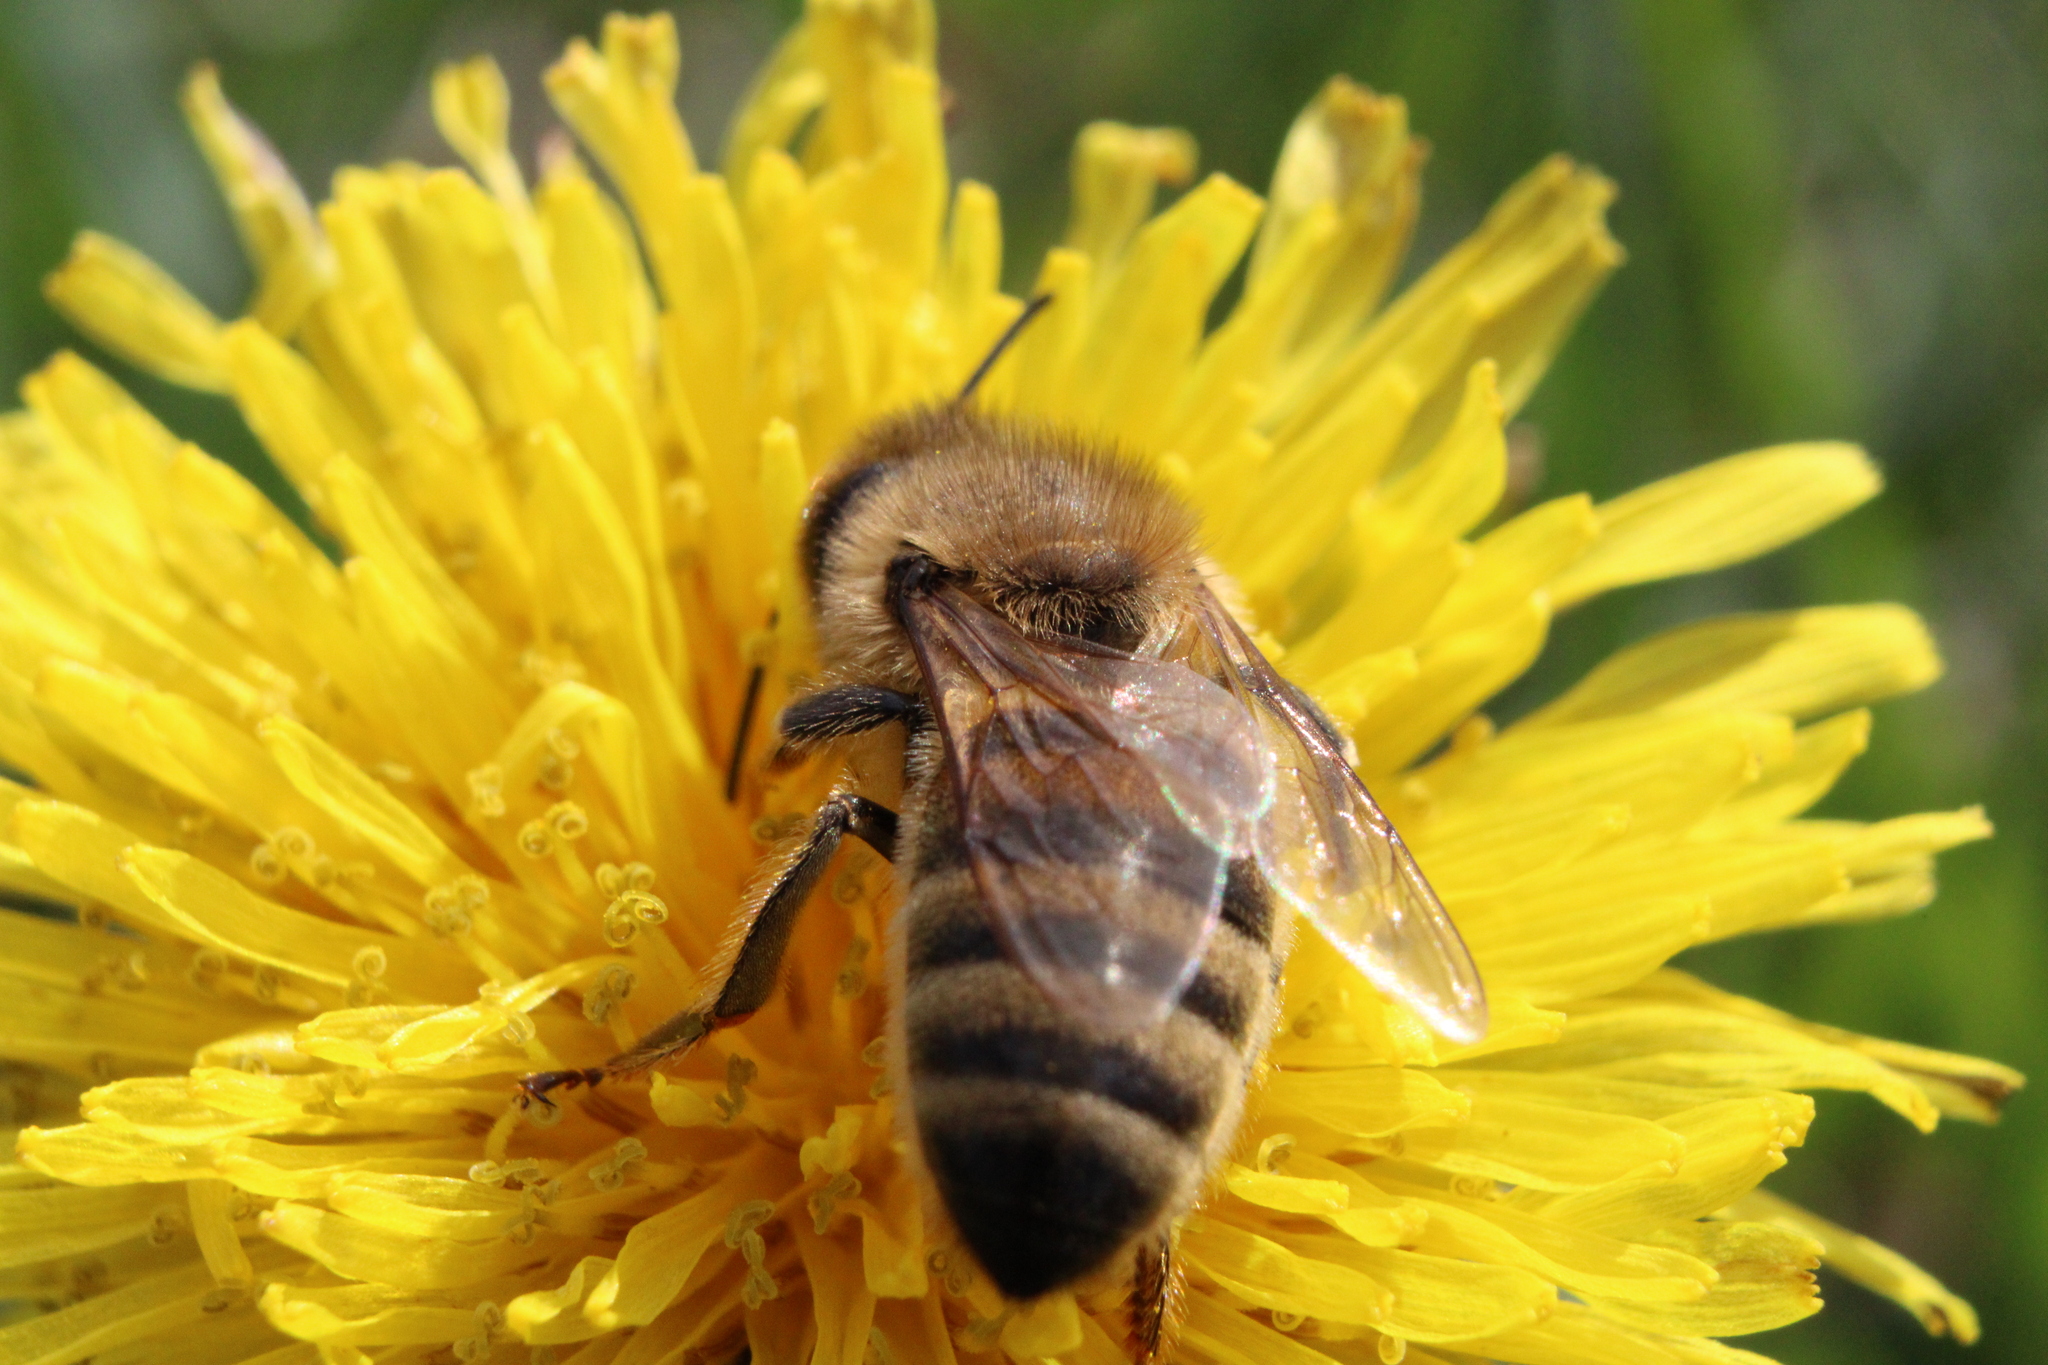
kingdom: Animalia
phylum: Arthropoda
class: Insecta
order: Hymenoptera
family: Apidae
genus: Apis
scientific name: Apis mellifera
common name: Honey bee
